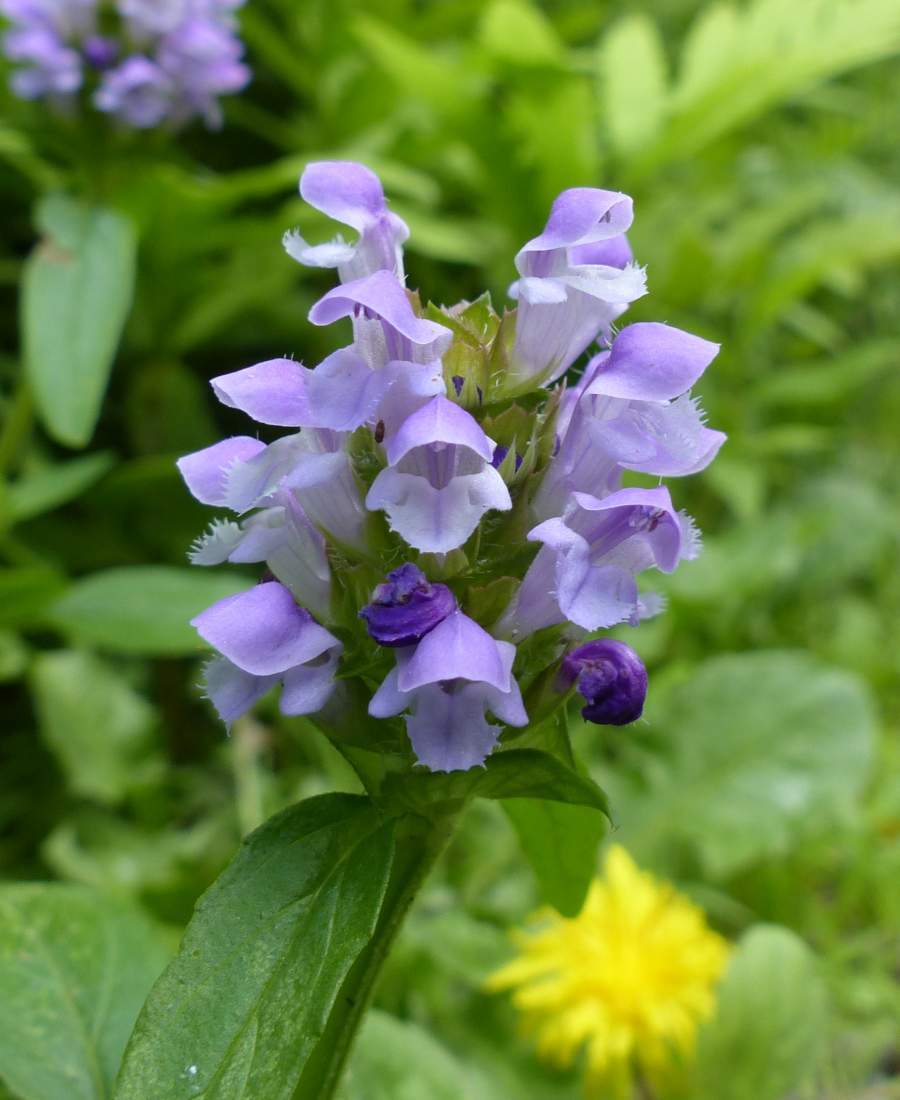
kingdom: Plantae
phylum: Tracheophyta
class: Magnoliopsida
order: Lamiales
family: Lamiaceae
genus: Prunella
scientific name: Prunella vulgaris
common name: Heal-all
